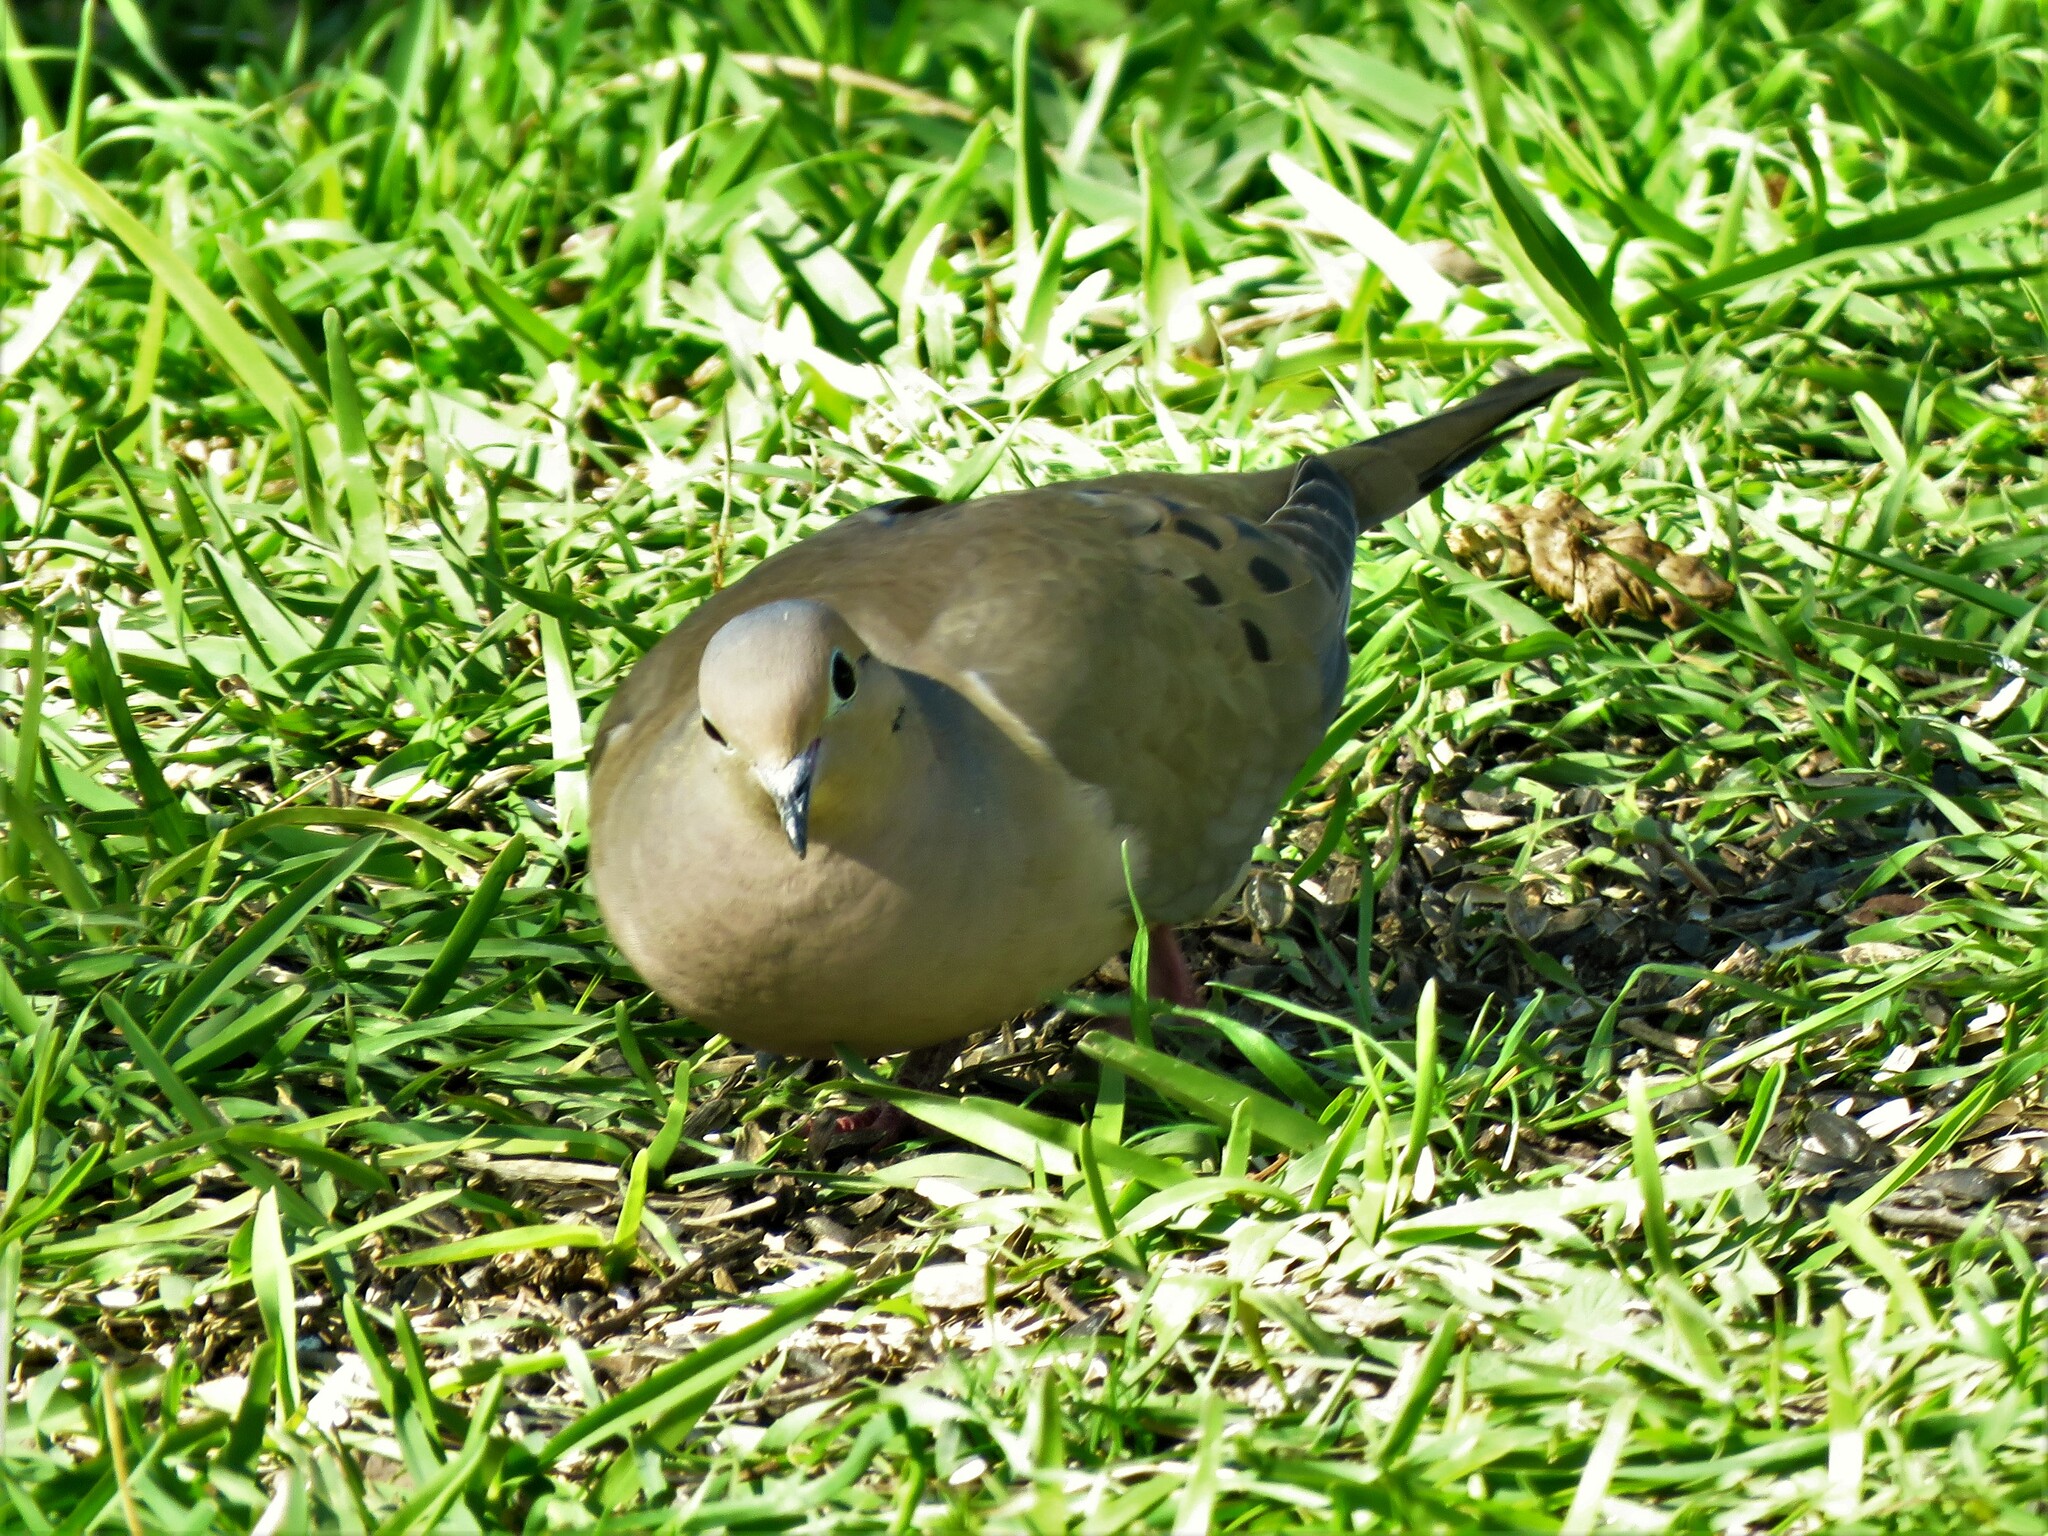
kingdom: Animalia
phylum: Chordata
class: Aves
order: Columbiformes
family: Columbidae
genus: Zenaida
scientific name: Zenaida macroura
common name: Mourning dove
